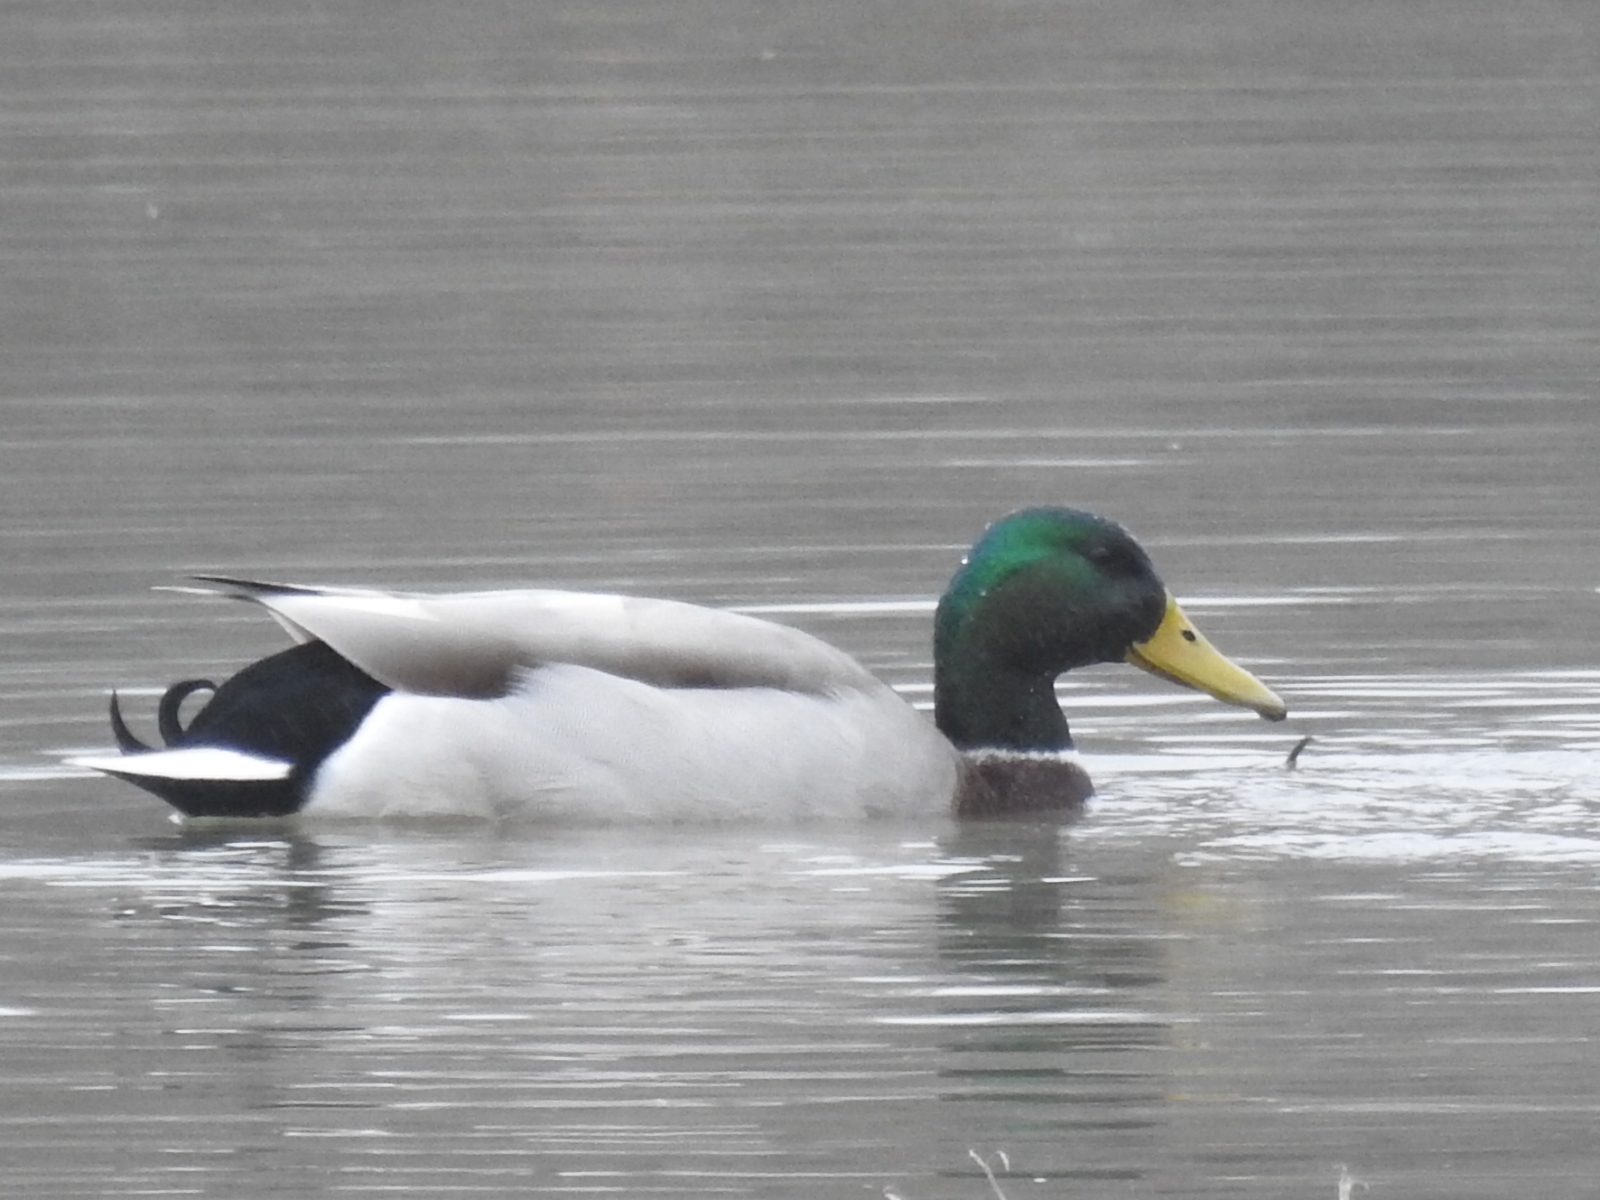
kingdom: Animalia
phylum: Chordata
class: Aves
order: Anseriformes
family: Anatidae
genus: Anas
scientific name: Anas platyrhynchos
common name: Mallard
